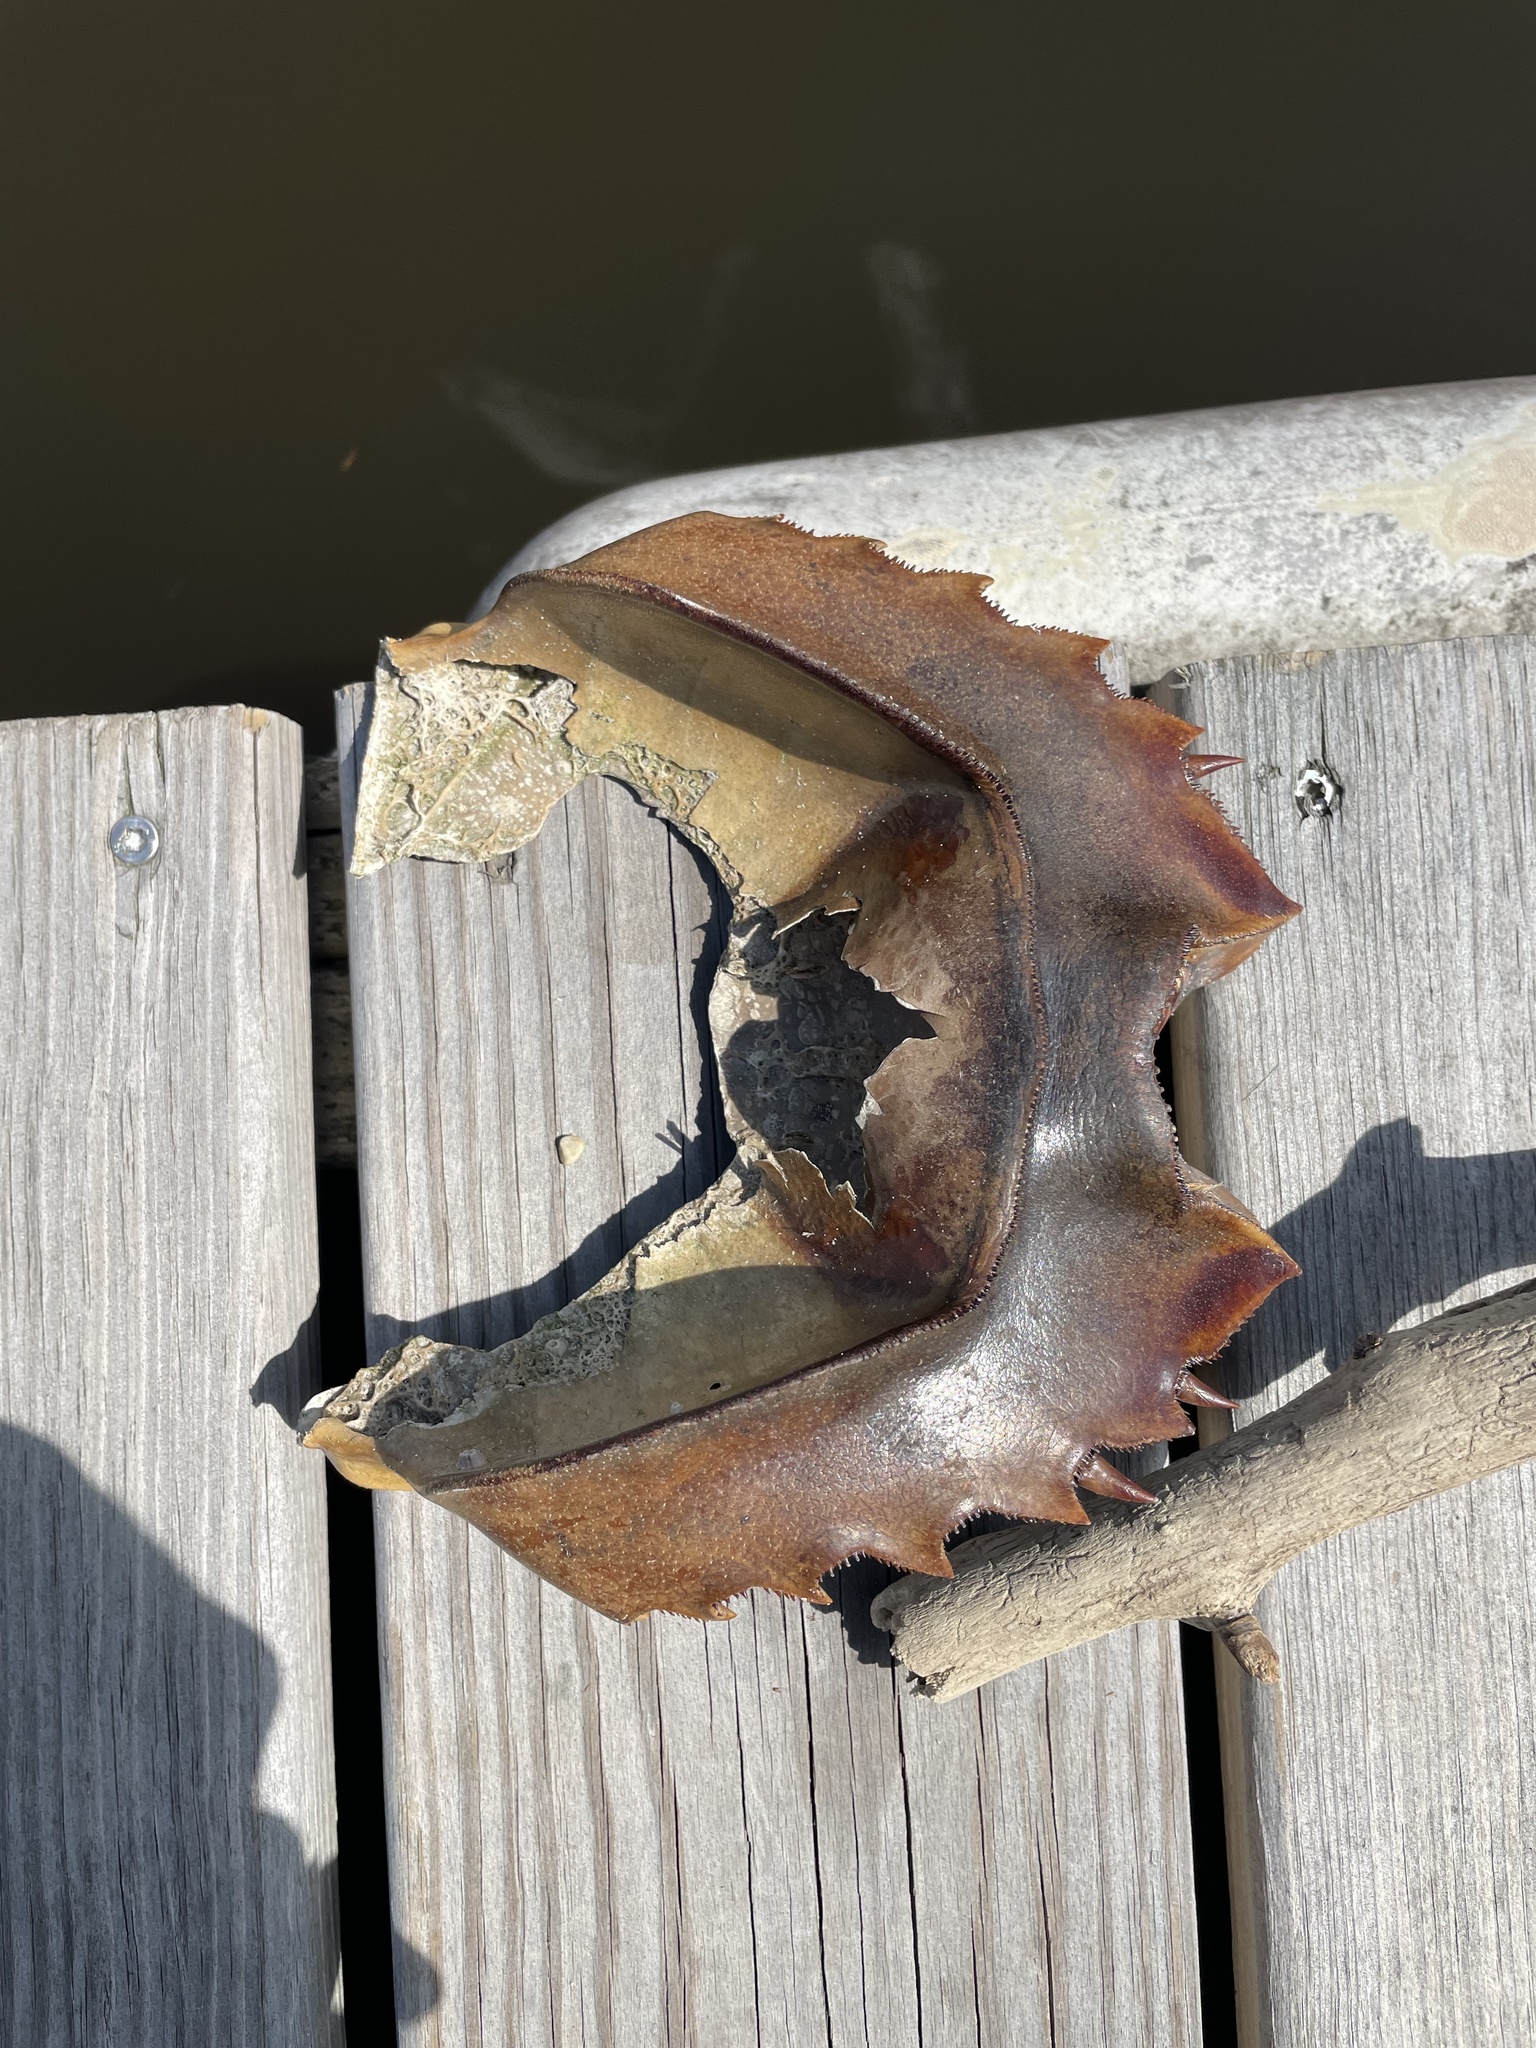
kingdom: Animalia
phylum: Arthropoda
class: Merostomata
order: Xiphosurida
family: Limulidae
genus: Limulus
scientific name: Limulus polyphemus
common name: Horseshoe crab
